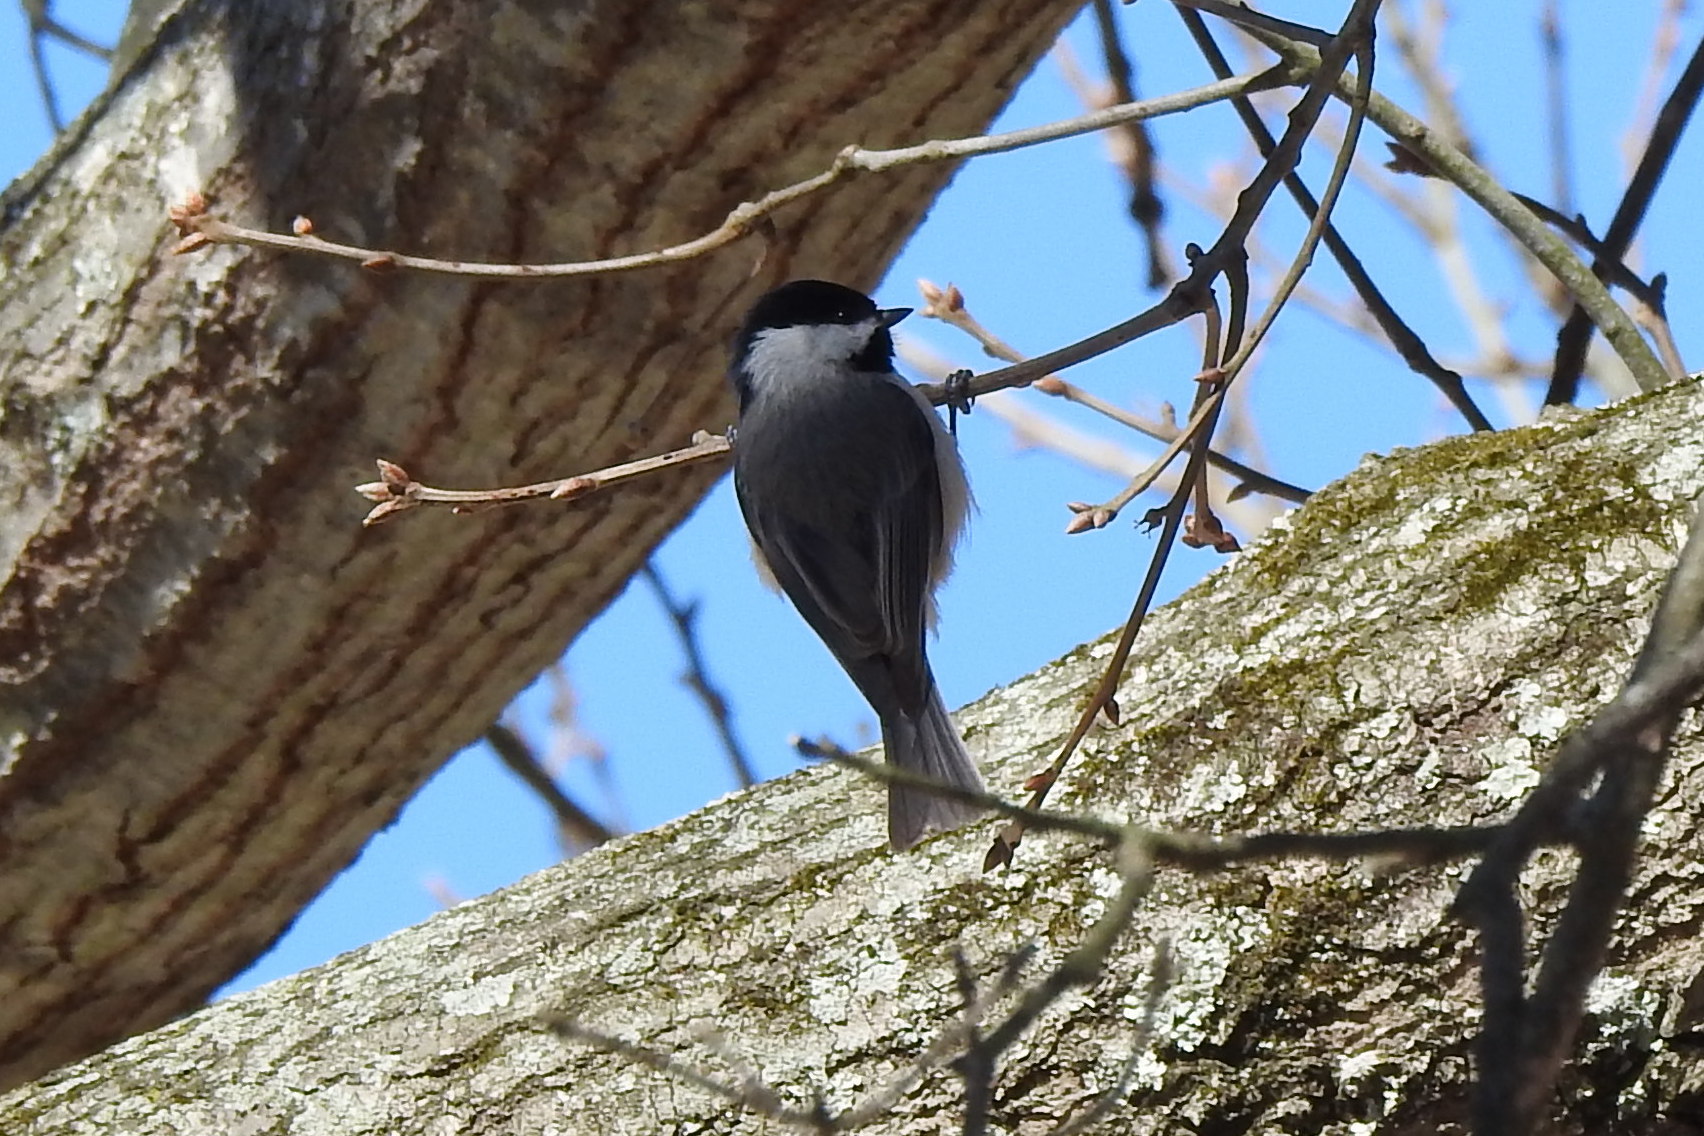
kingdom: Animalia
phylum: Chordata
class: Aves
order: Passeriformes
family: Paridae
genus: Poecile
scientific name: Poecile carolinensis
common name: Carolina chickadee
